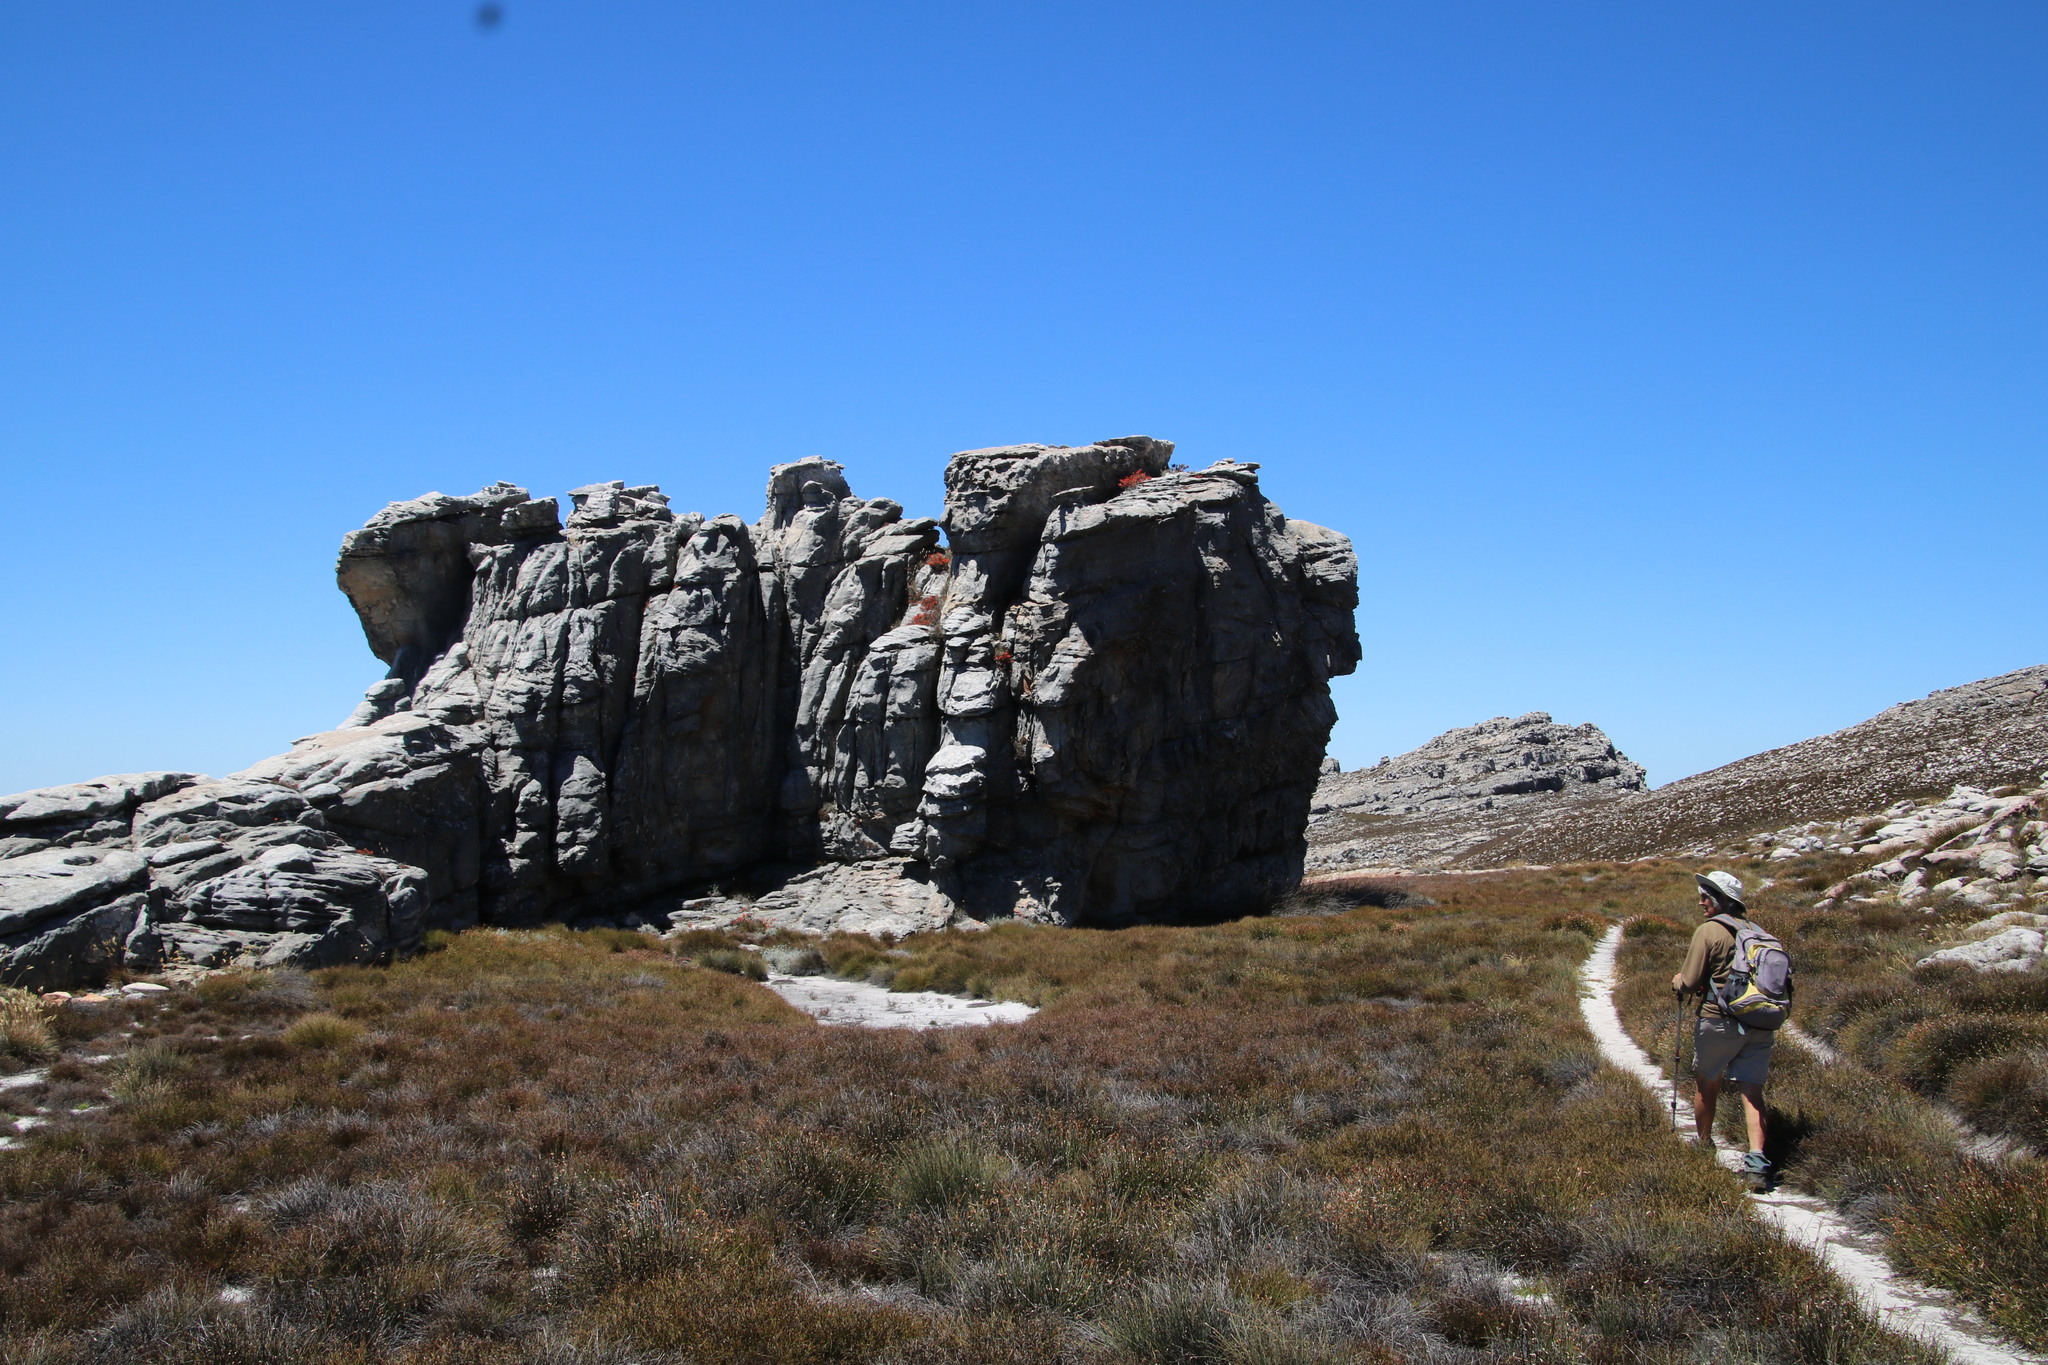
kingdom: Plantae
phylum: Tracheophyta
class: Magnoliopsida
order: Ericales
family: Ericaceae
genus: Erica
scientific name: Erica tumida
